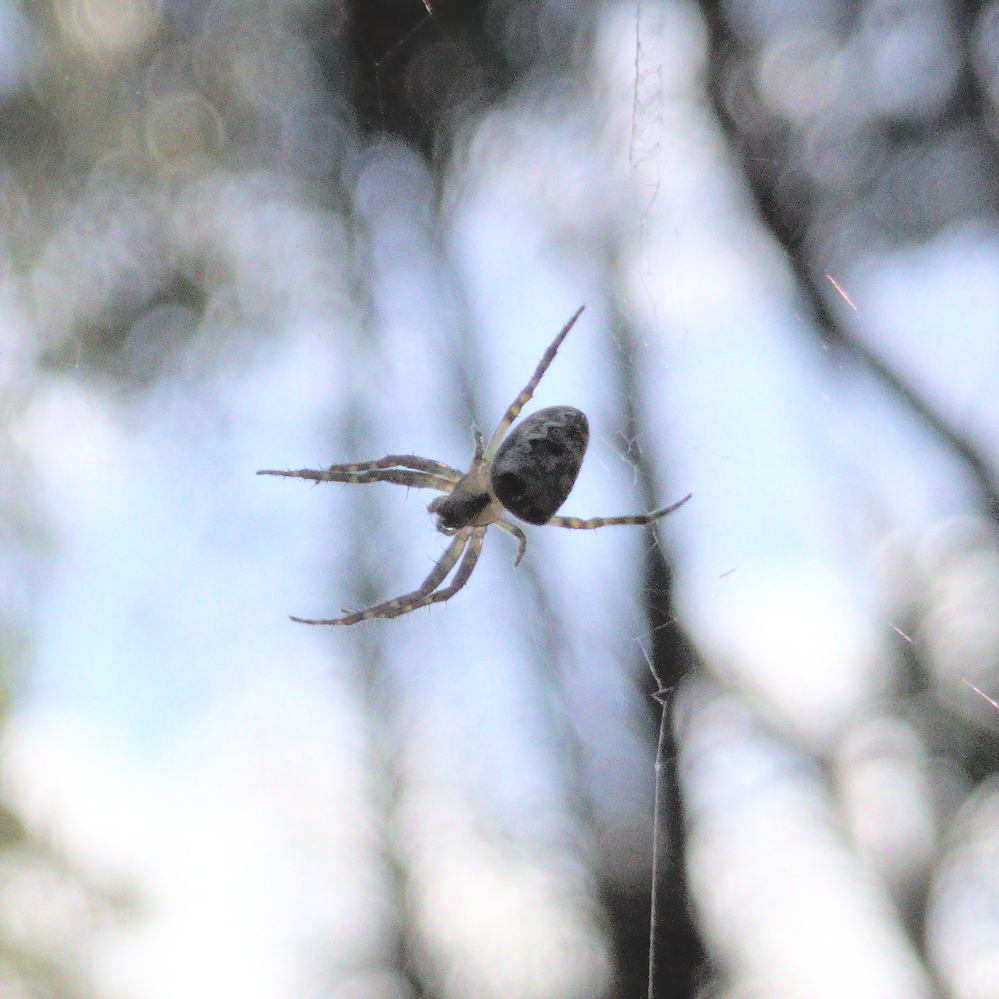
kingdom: Animalia
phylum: Arthropoda
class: Arachnida
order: Araneae
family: Araneidae
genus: Plebs
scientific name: Plebs eburnus
